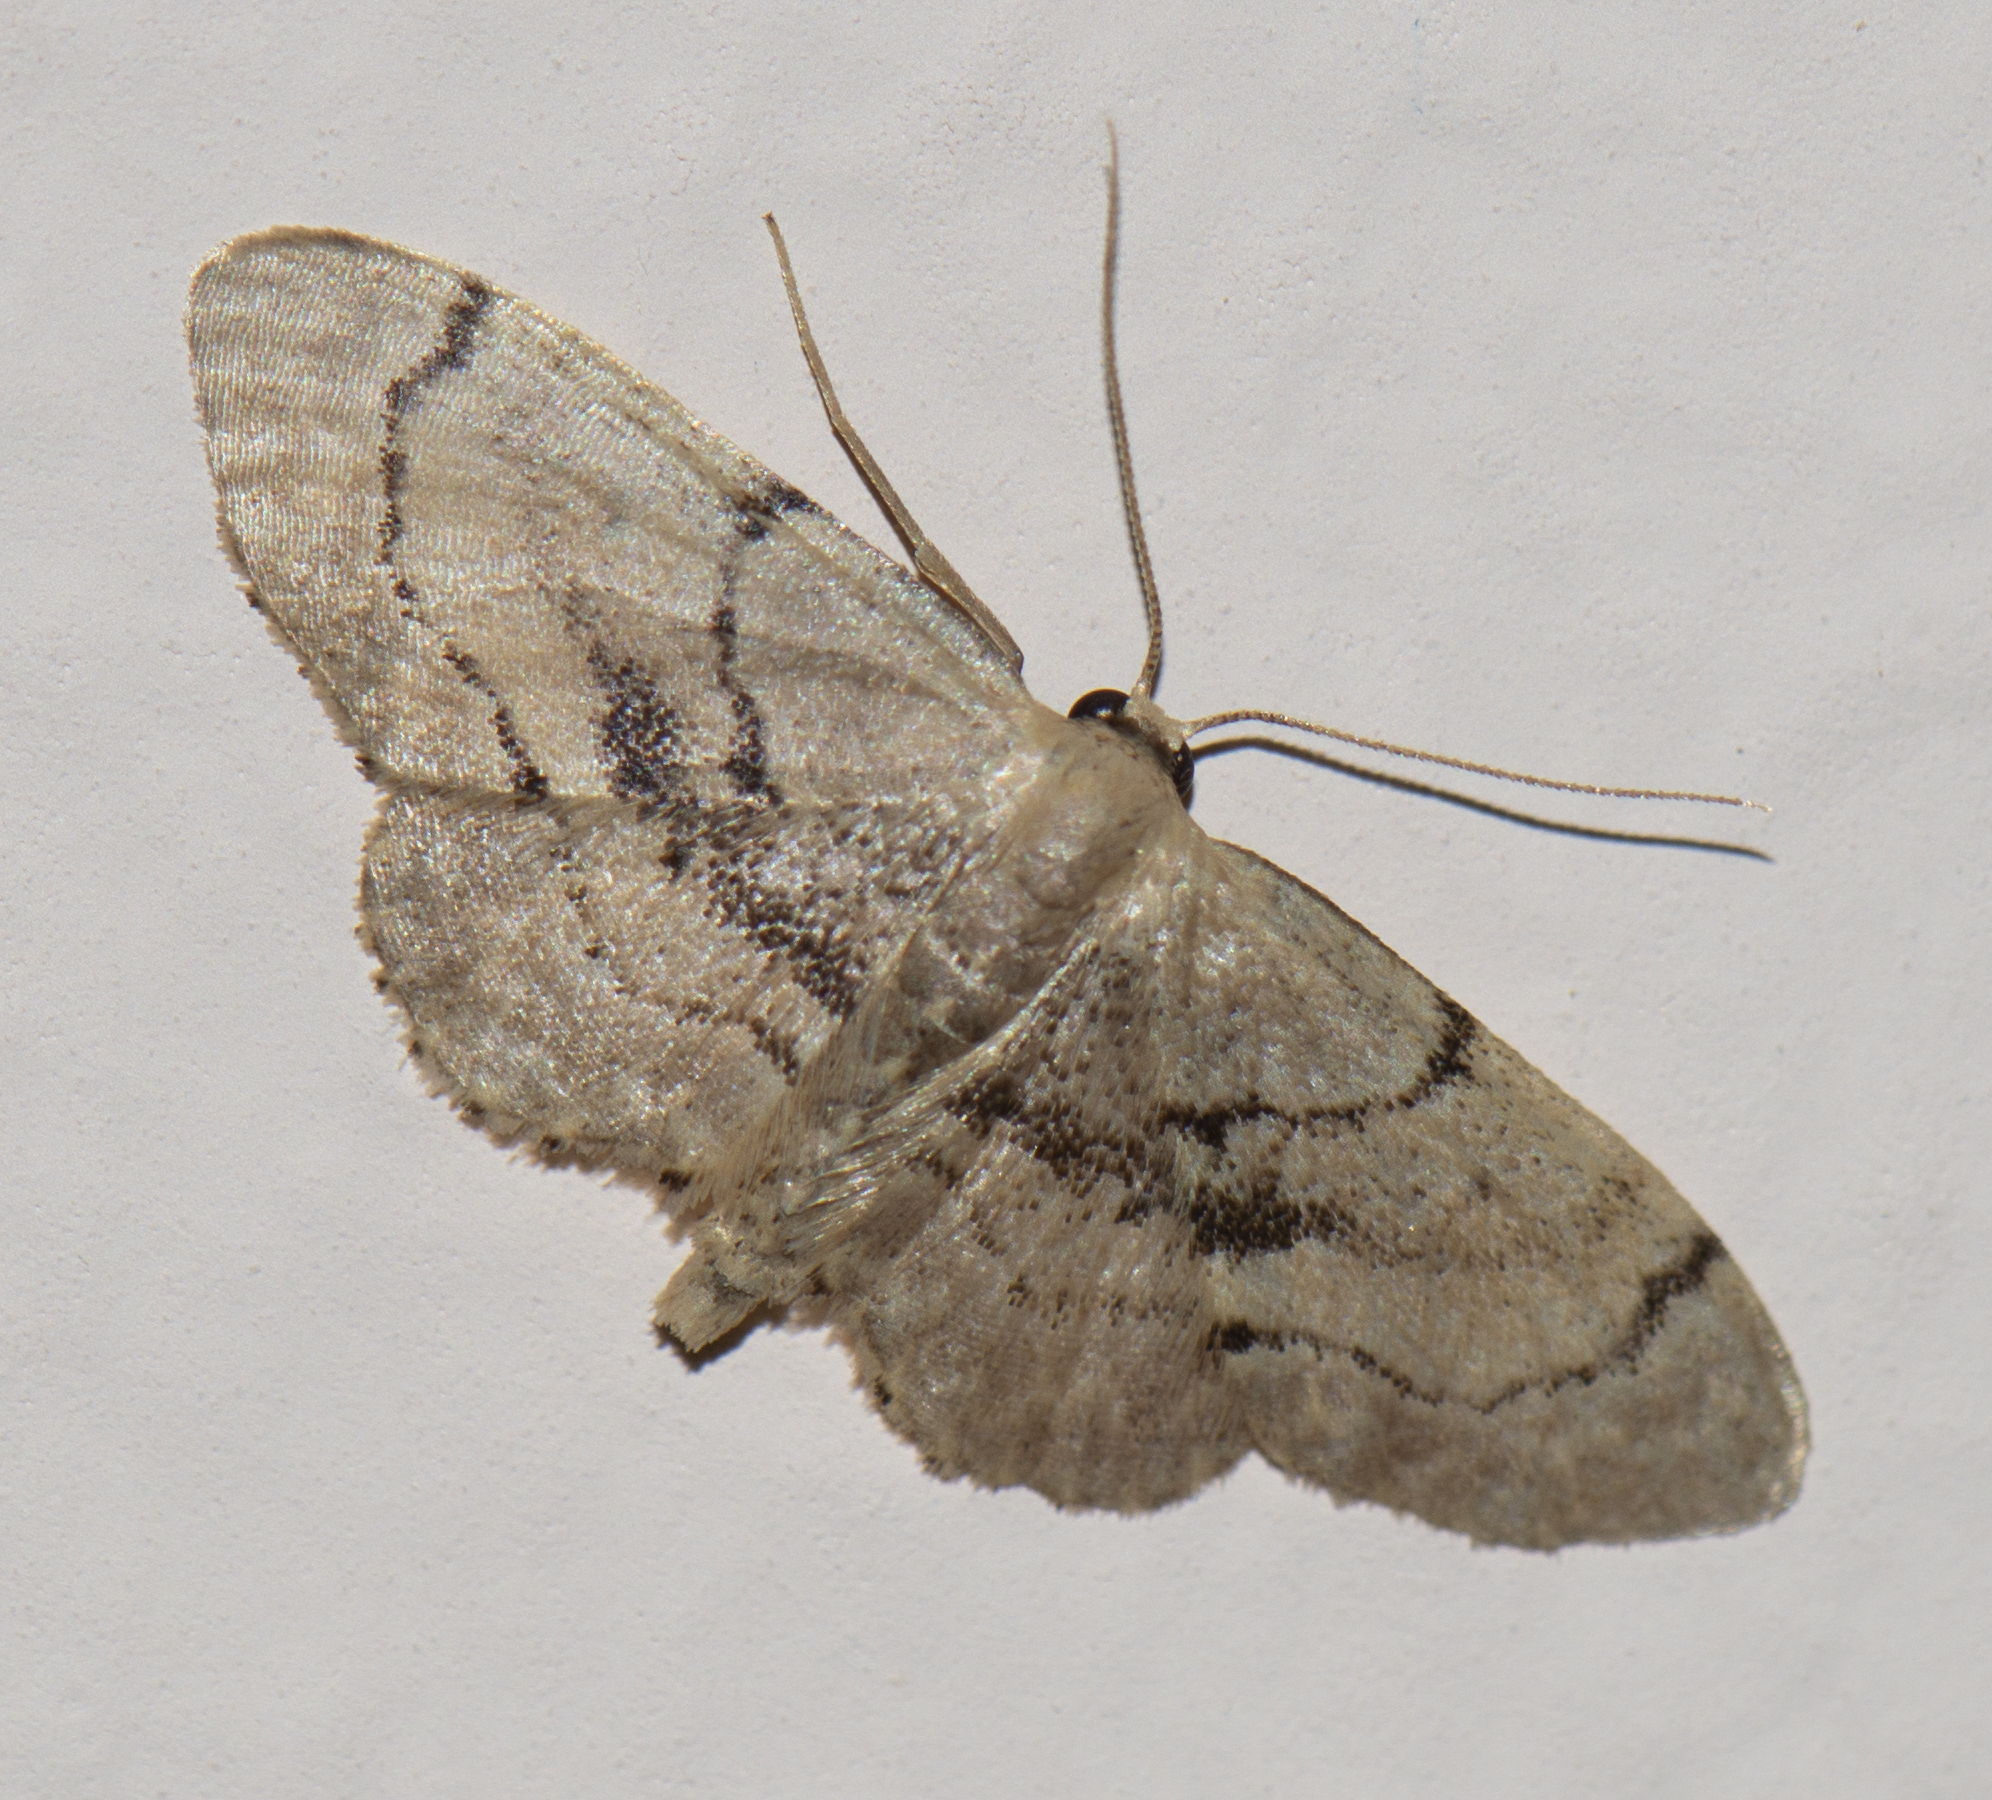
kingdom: Animalia
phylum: Arthropoda
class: Insecta
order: Lepidoptera
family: Geometridae
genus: Idaea
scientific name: Idaea laevigata
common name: Strange wave
